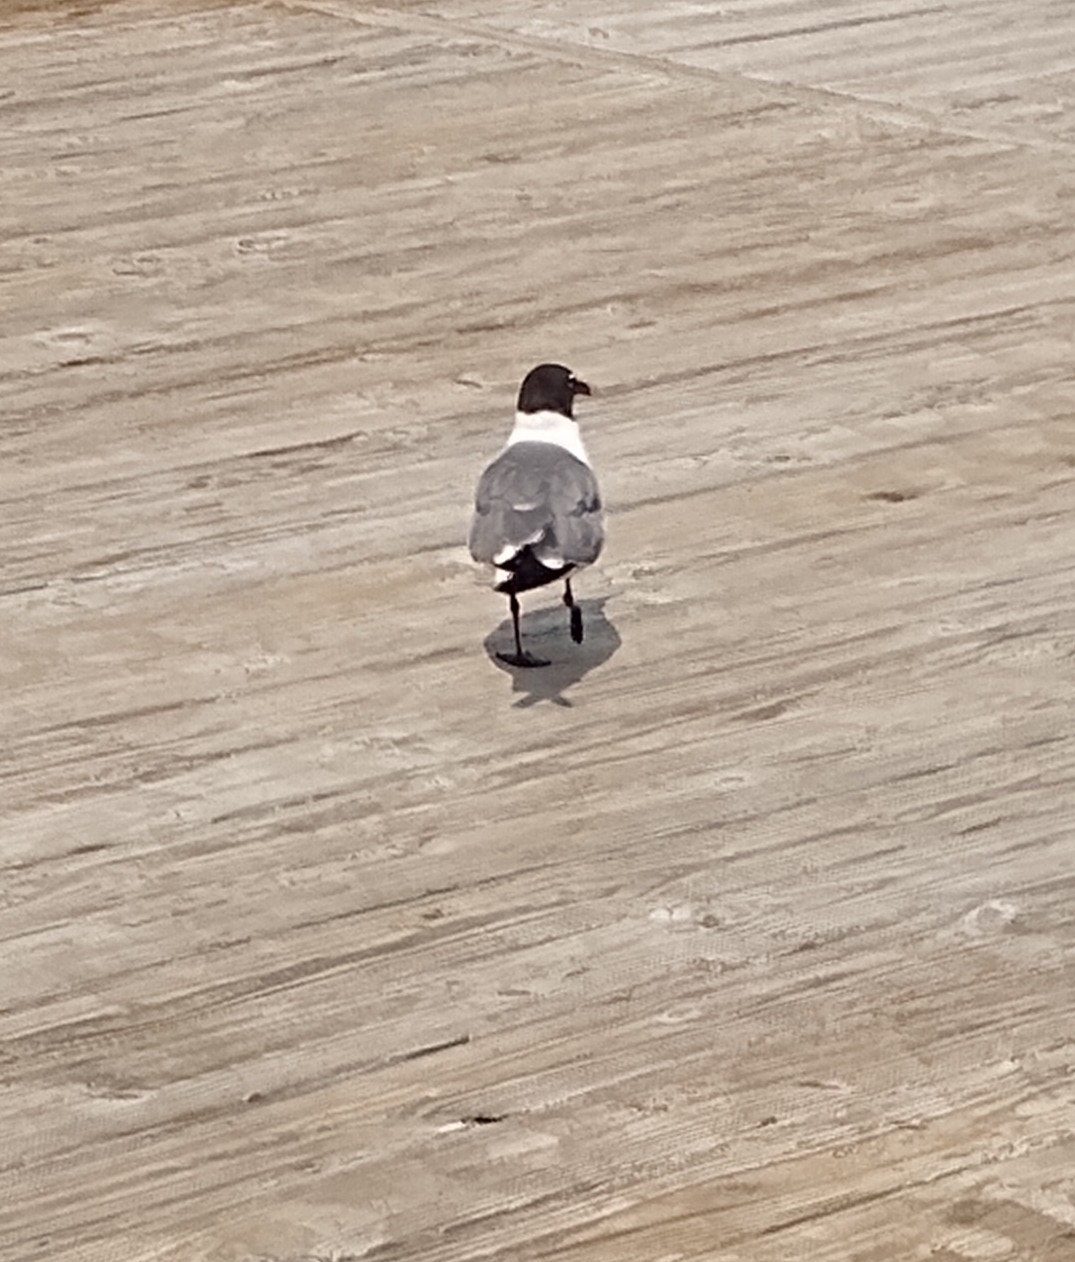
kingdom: Animalia
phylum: Chordata
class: Aves
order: Charadriiformes
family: Laridae
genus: Leucophaeus
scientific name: Leucophaeus atricilla
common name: Laughing gull
